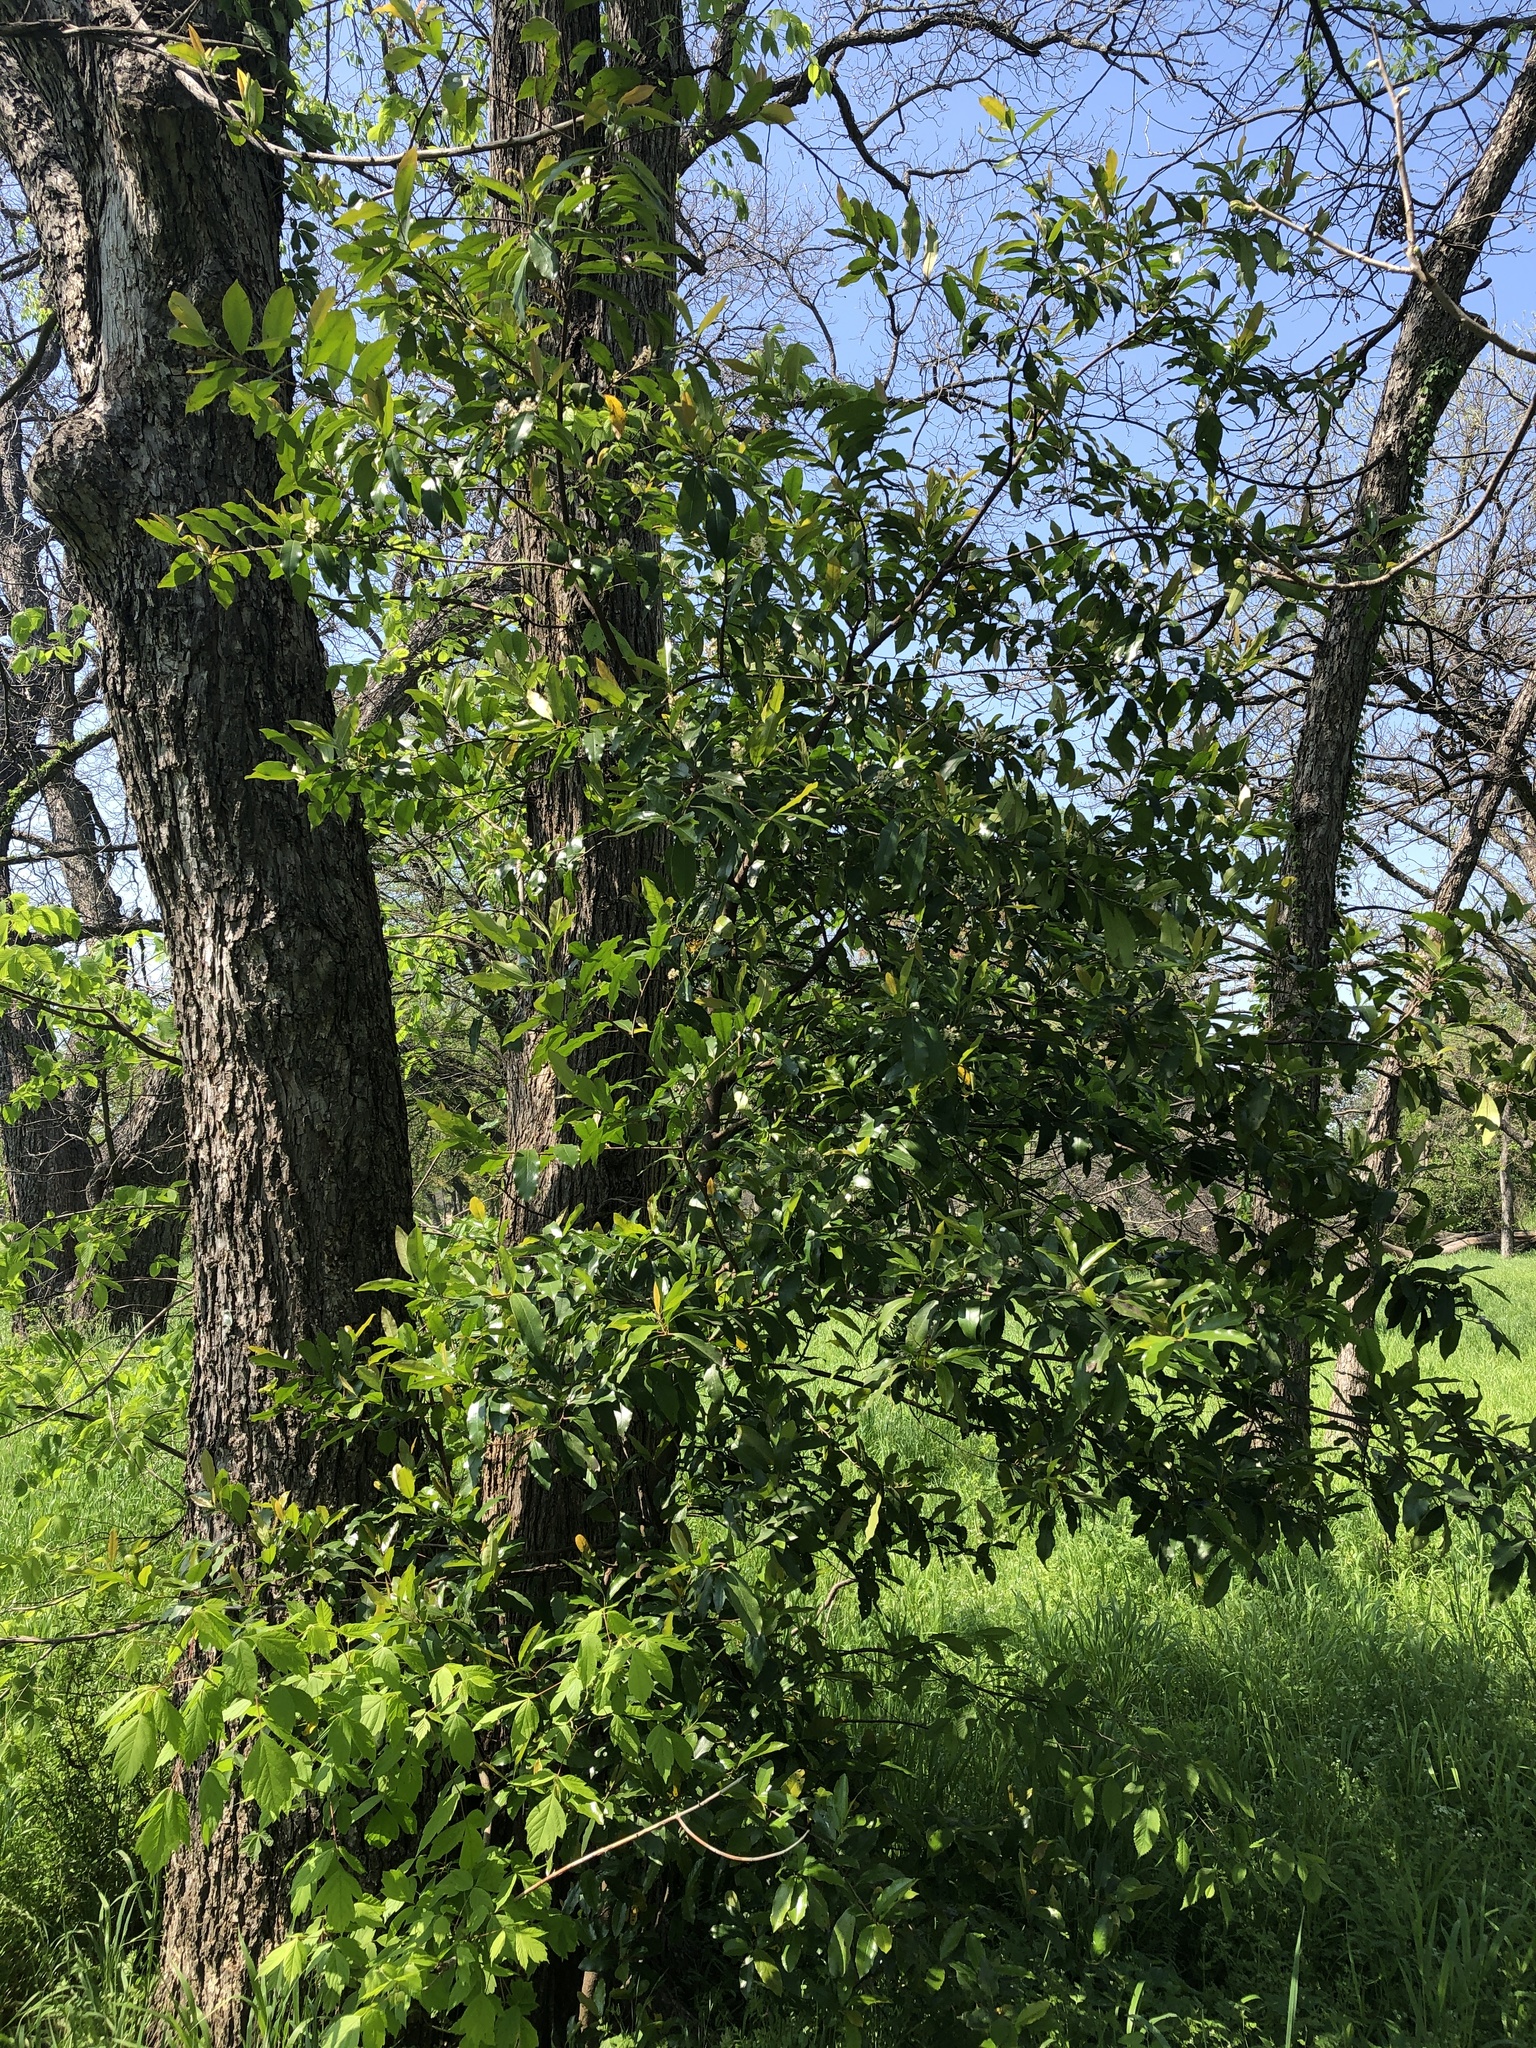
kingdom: Plantae
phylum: Tracheophyta
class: Magnoliopsida
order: Rosales
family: Rosaceae
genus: Prunus
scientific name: Prunus caroliniana
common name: Carolina laurel cherry
